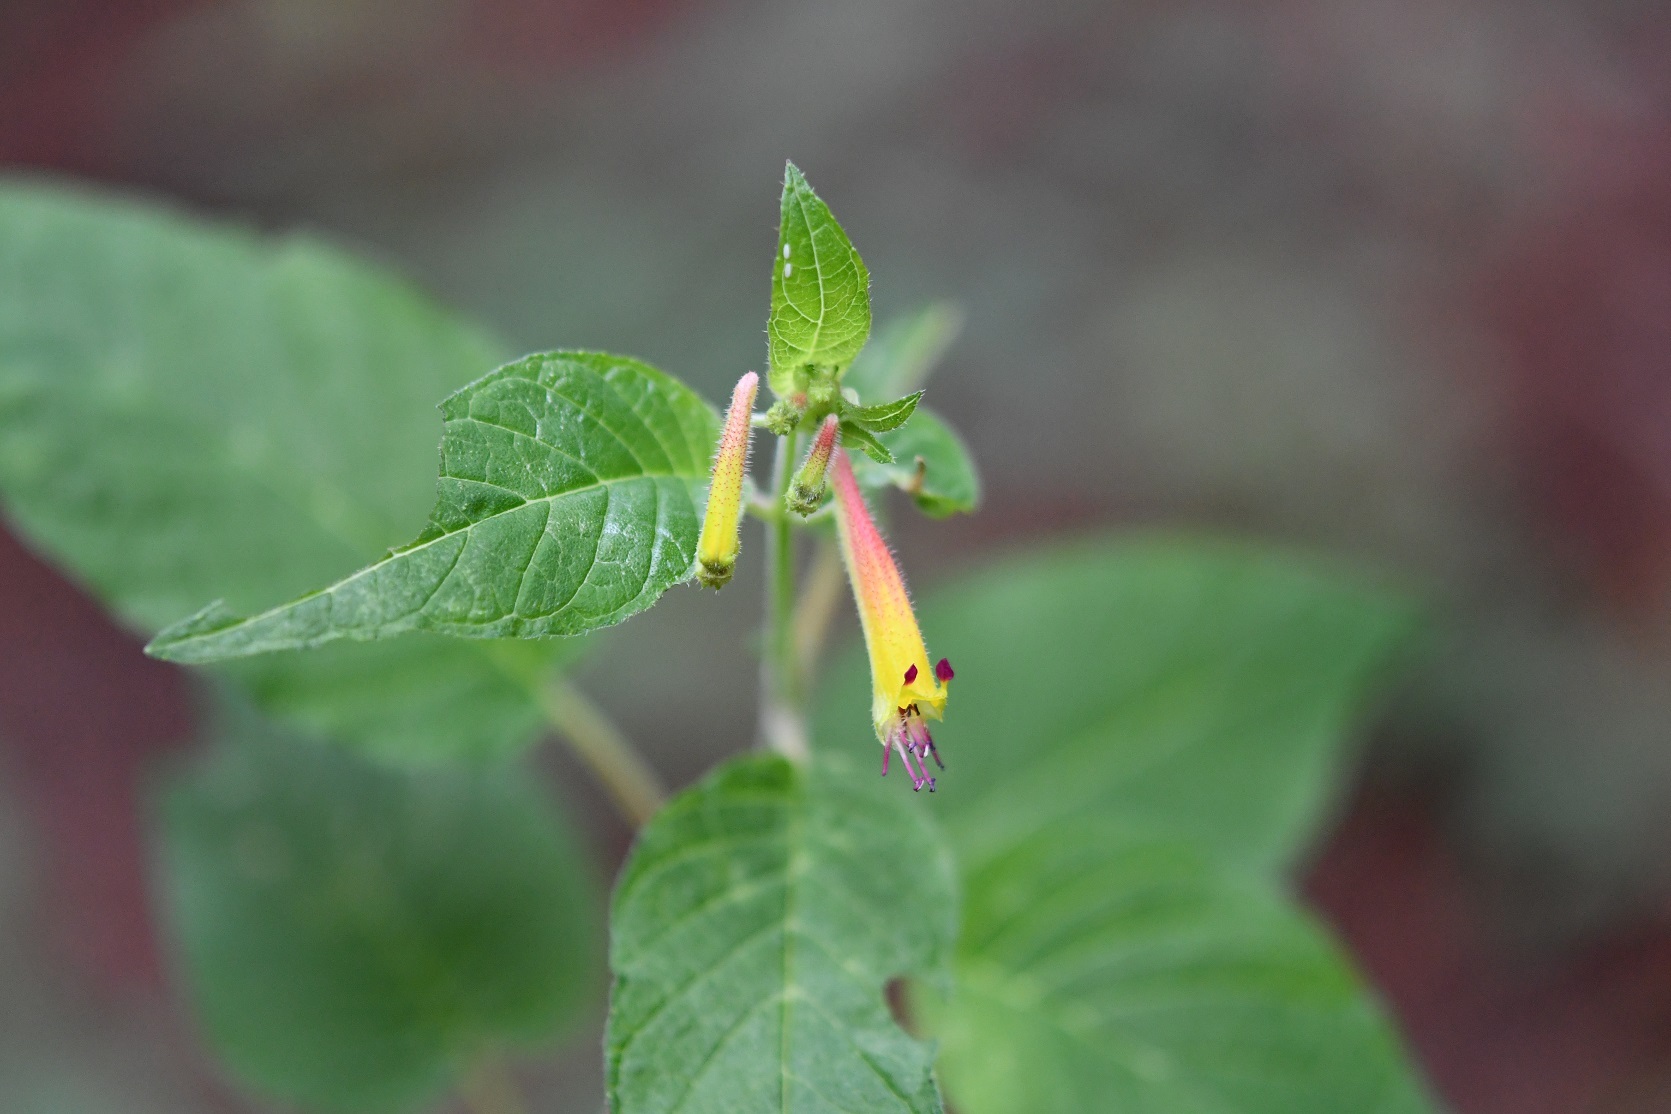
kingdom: Plantae
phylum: Tracheophyta
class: Magnoliopsida
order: Myrtales
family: Lythraceae
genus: Cuphea
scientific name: Cuphea cyanea
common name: Black-eyed cuphea
